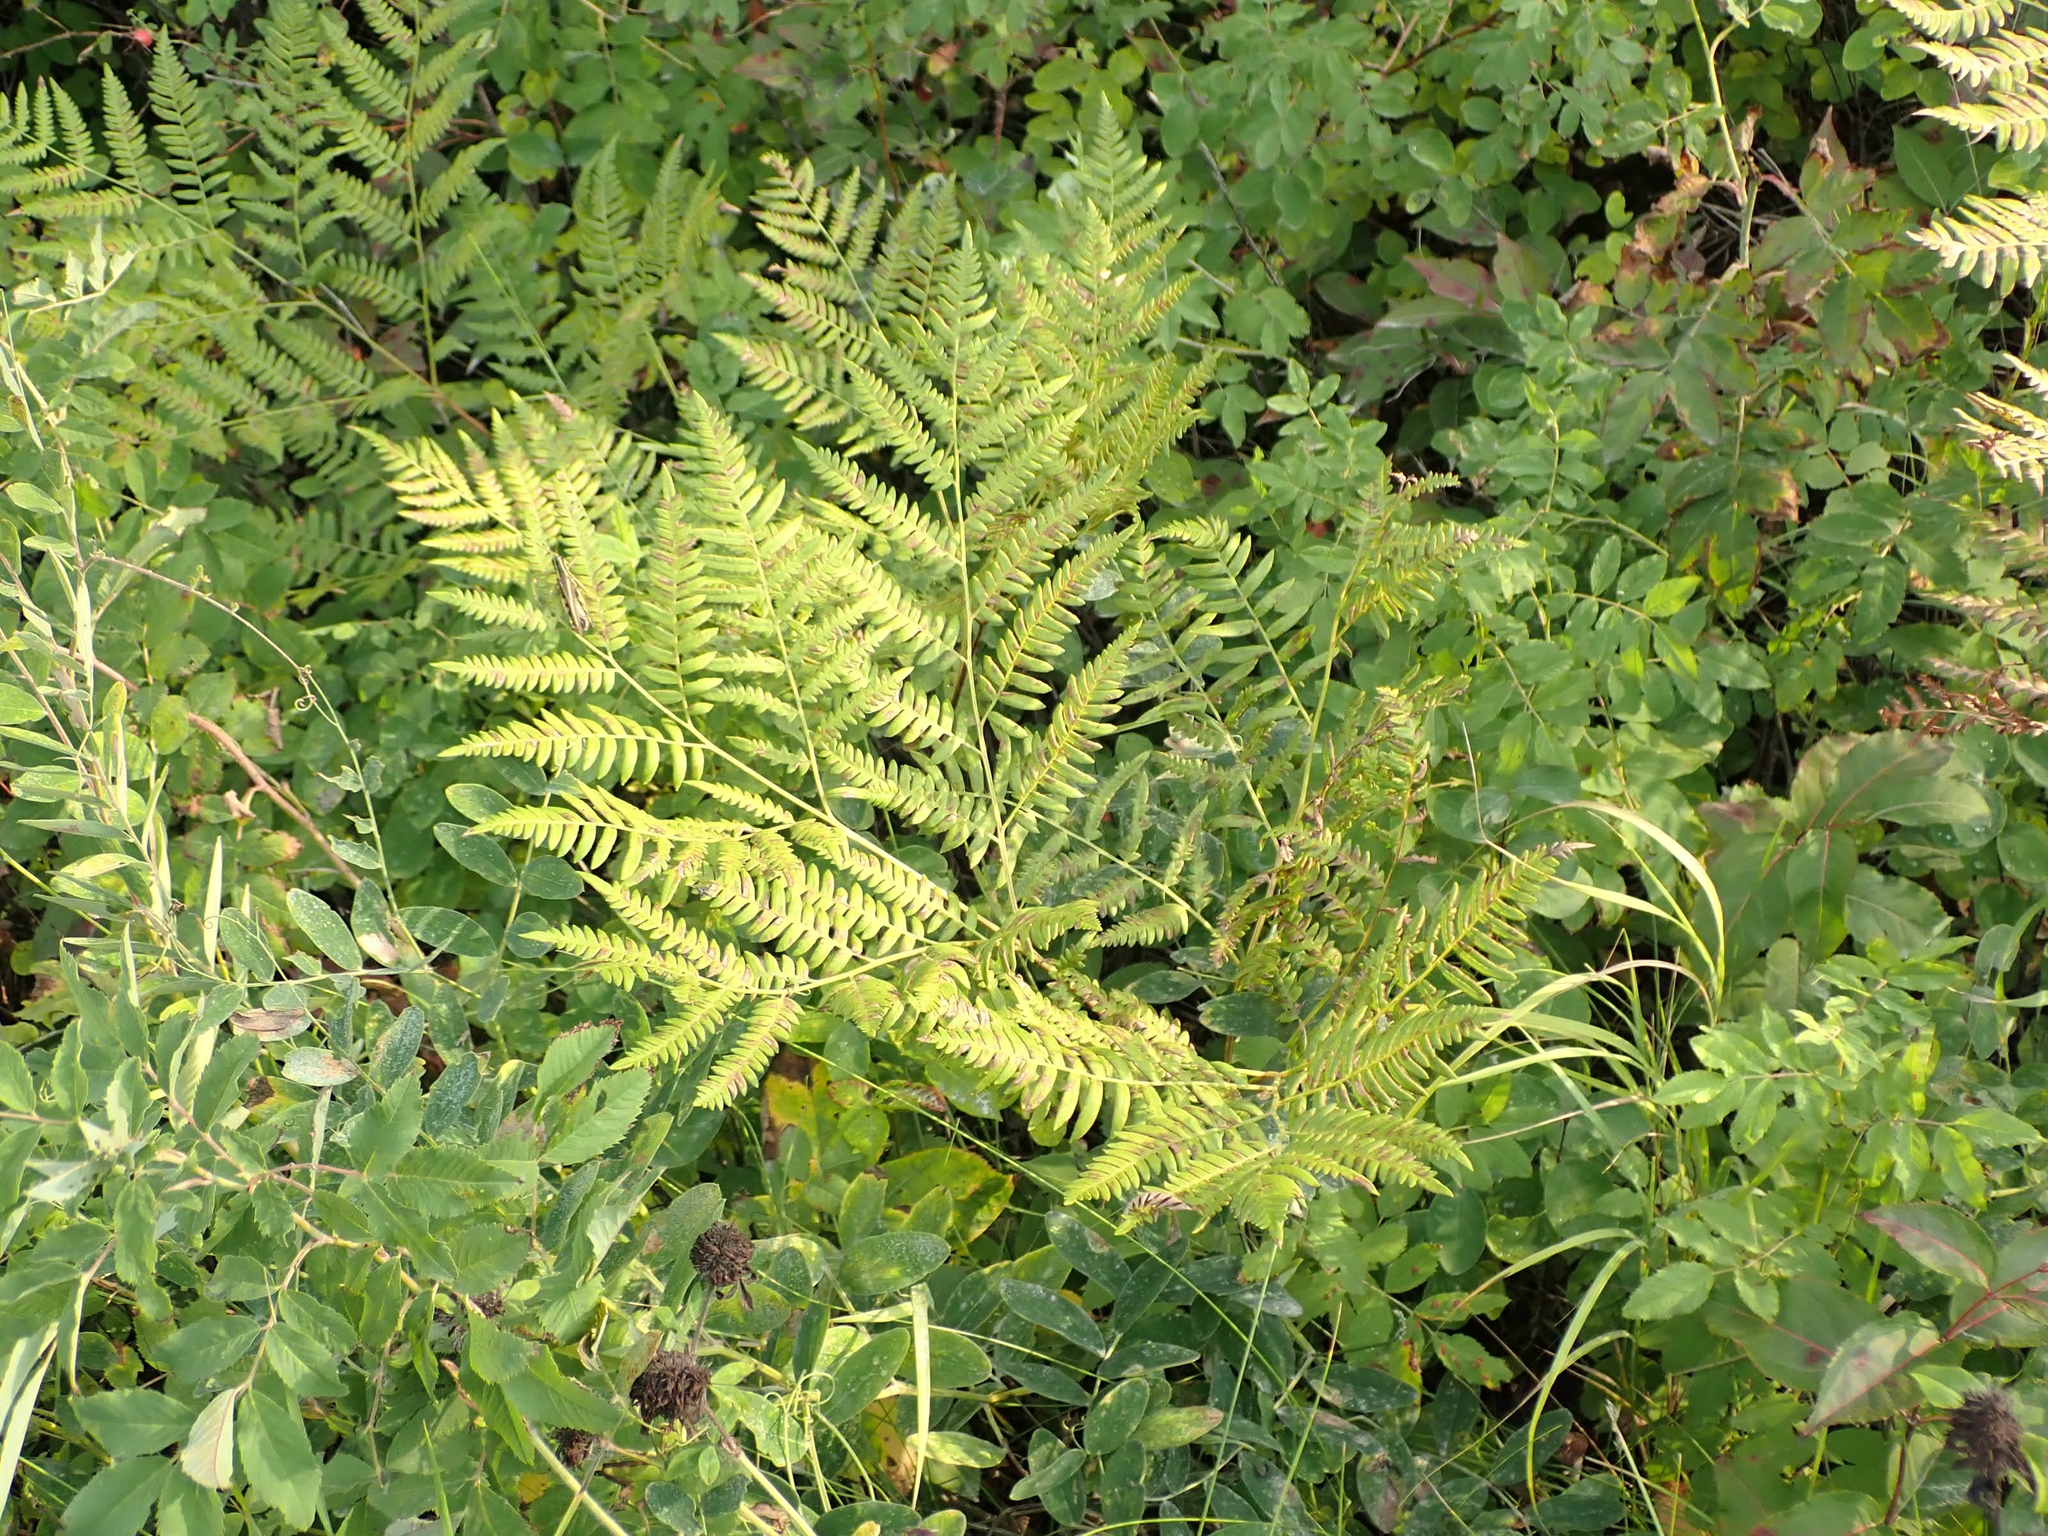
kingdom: Plantae
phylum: Tracheophyta
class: Polypodiopsida
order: Polypodiales
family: Dennstaedtiaceae
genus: Pteridium
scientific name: Pteridium aquilinum
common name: Bracken
